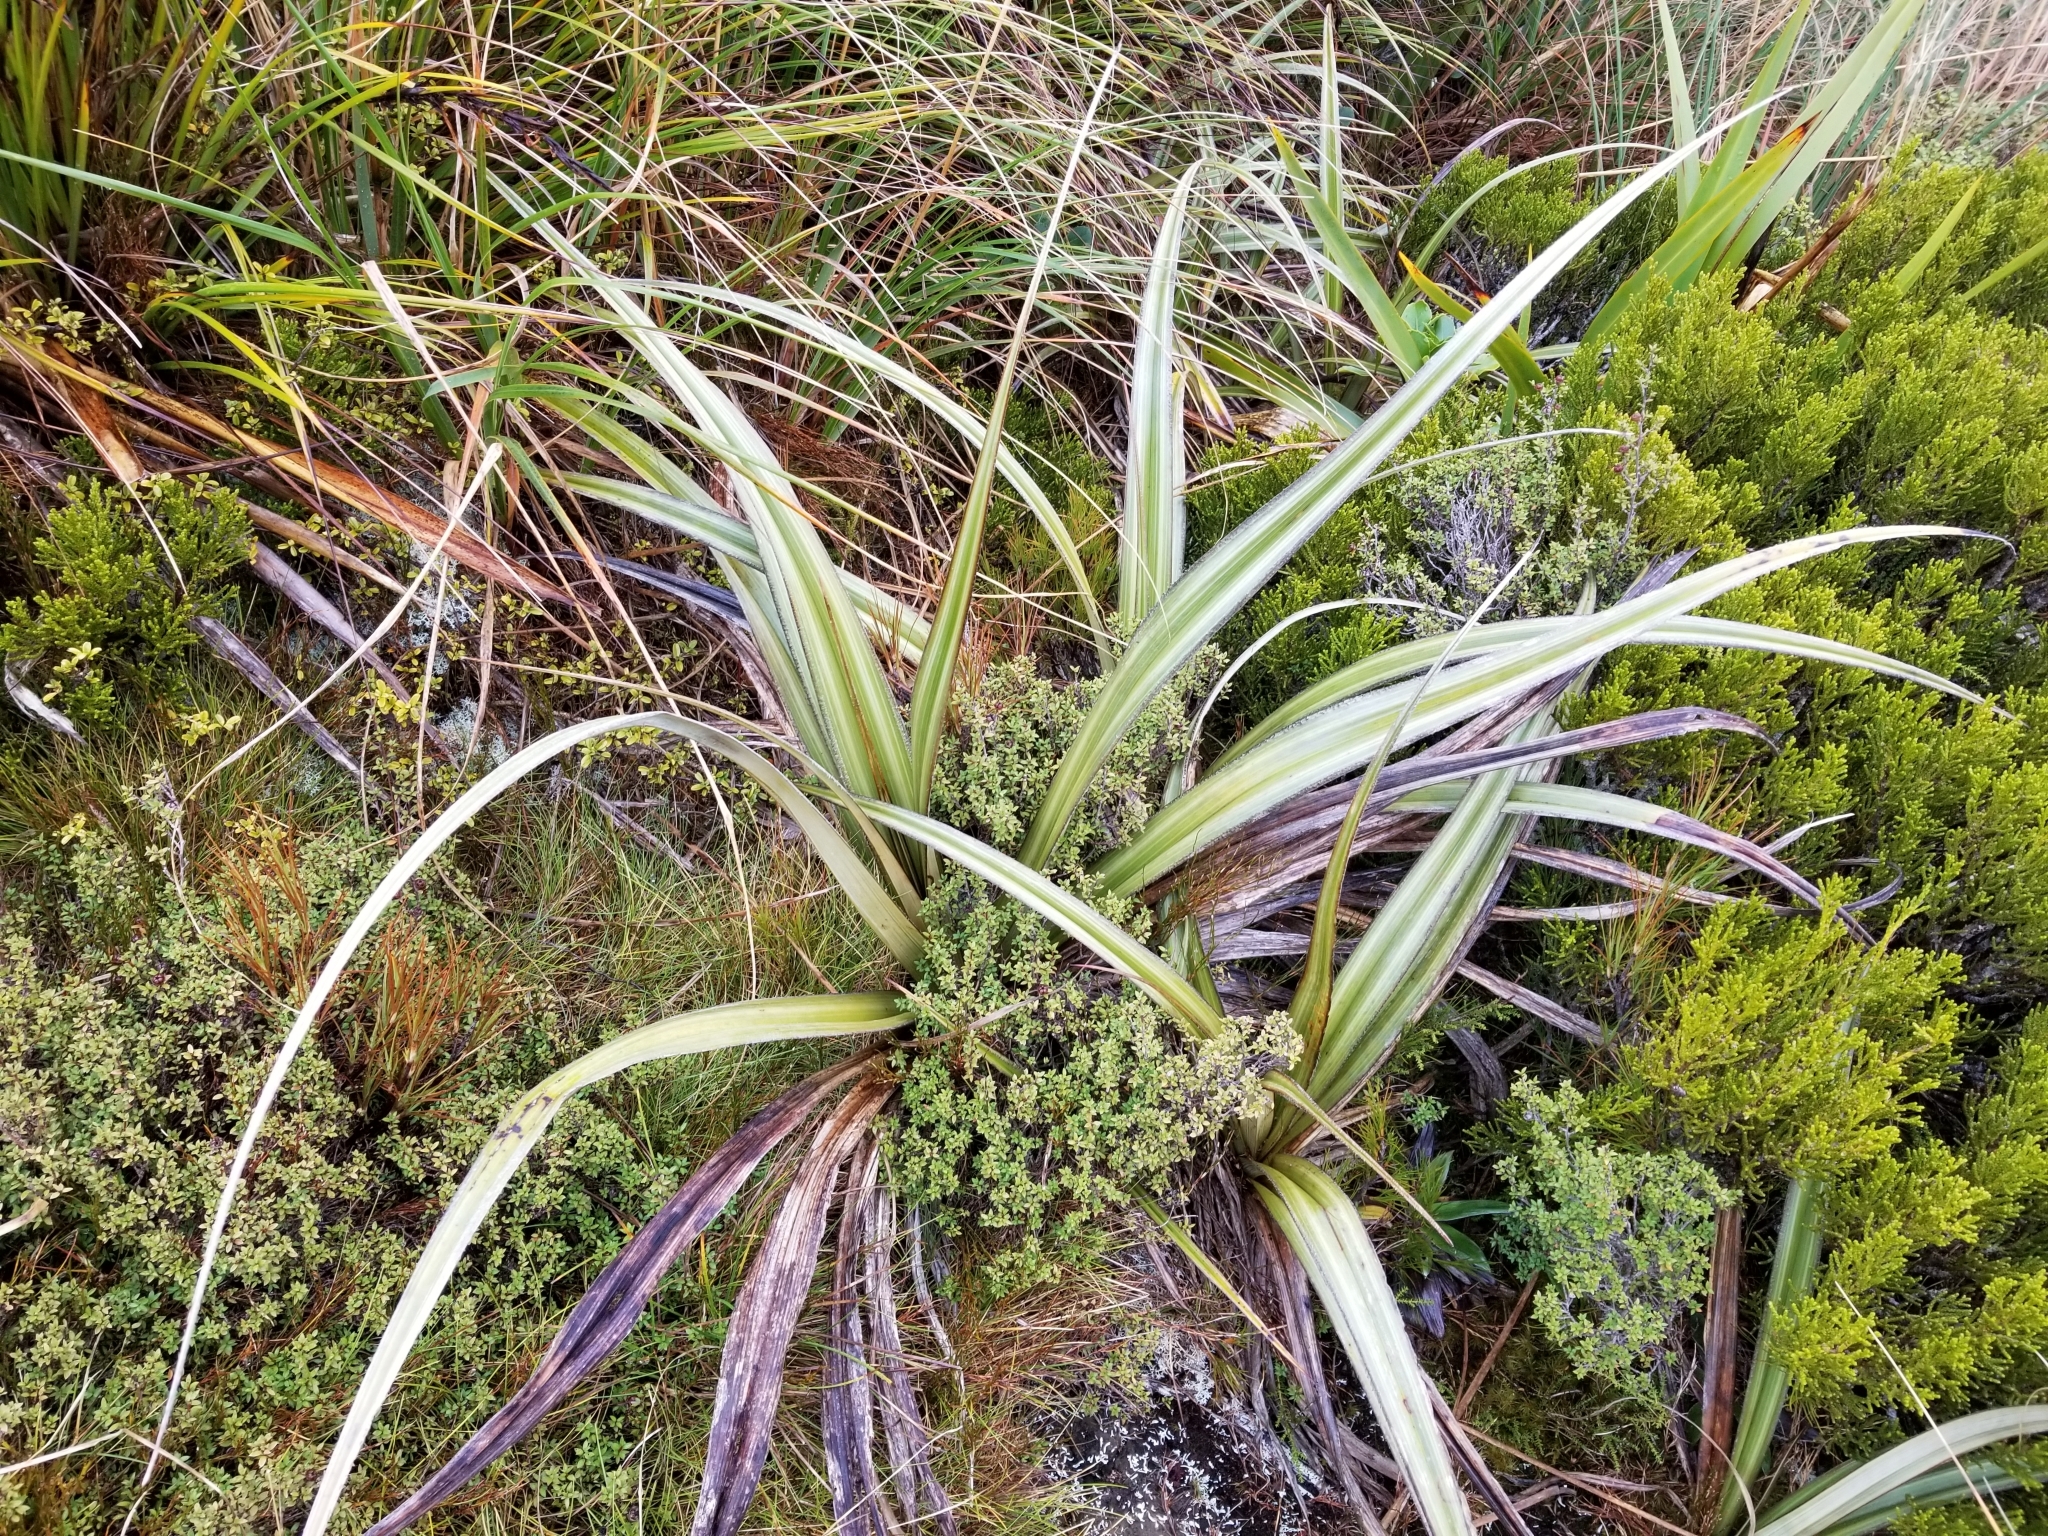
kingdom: Plantae
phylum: Tracheophyta
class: Liliopsida
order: Asparagales
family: Asteliaceae
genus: Astelia
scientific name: Astelia nervosa
